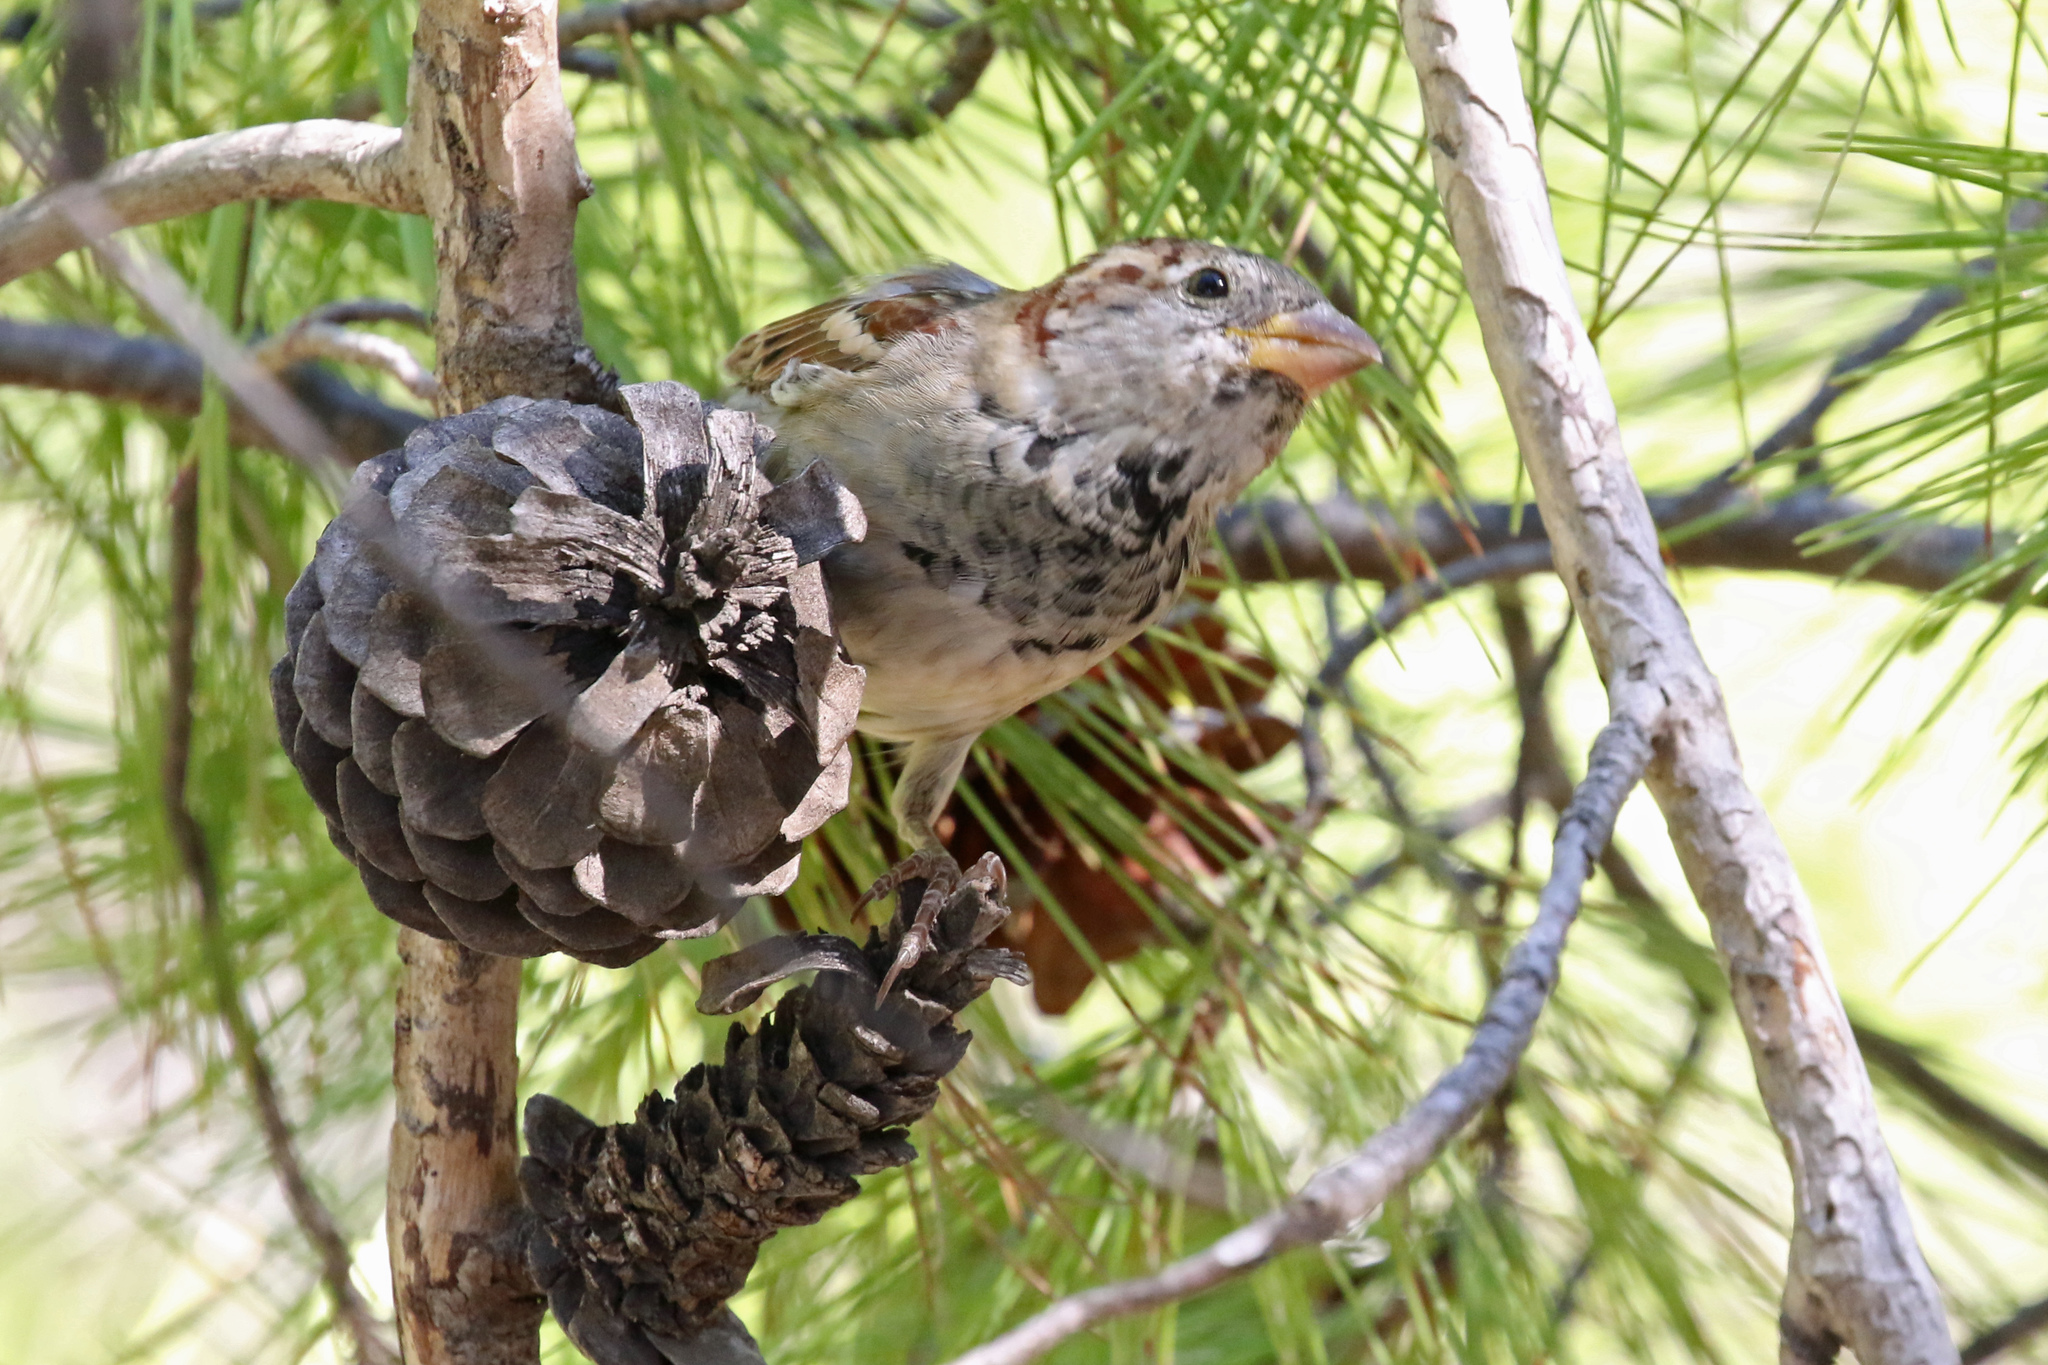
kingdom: Animalia
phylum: Chordata
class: Aves
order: Passeriformes
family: Passeridae
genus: Passer
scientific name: Passer domesticus
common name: House sparrow
